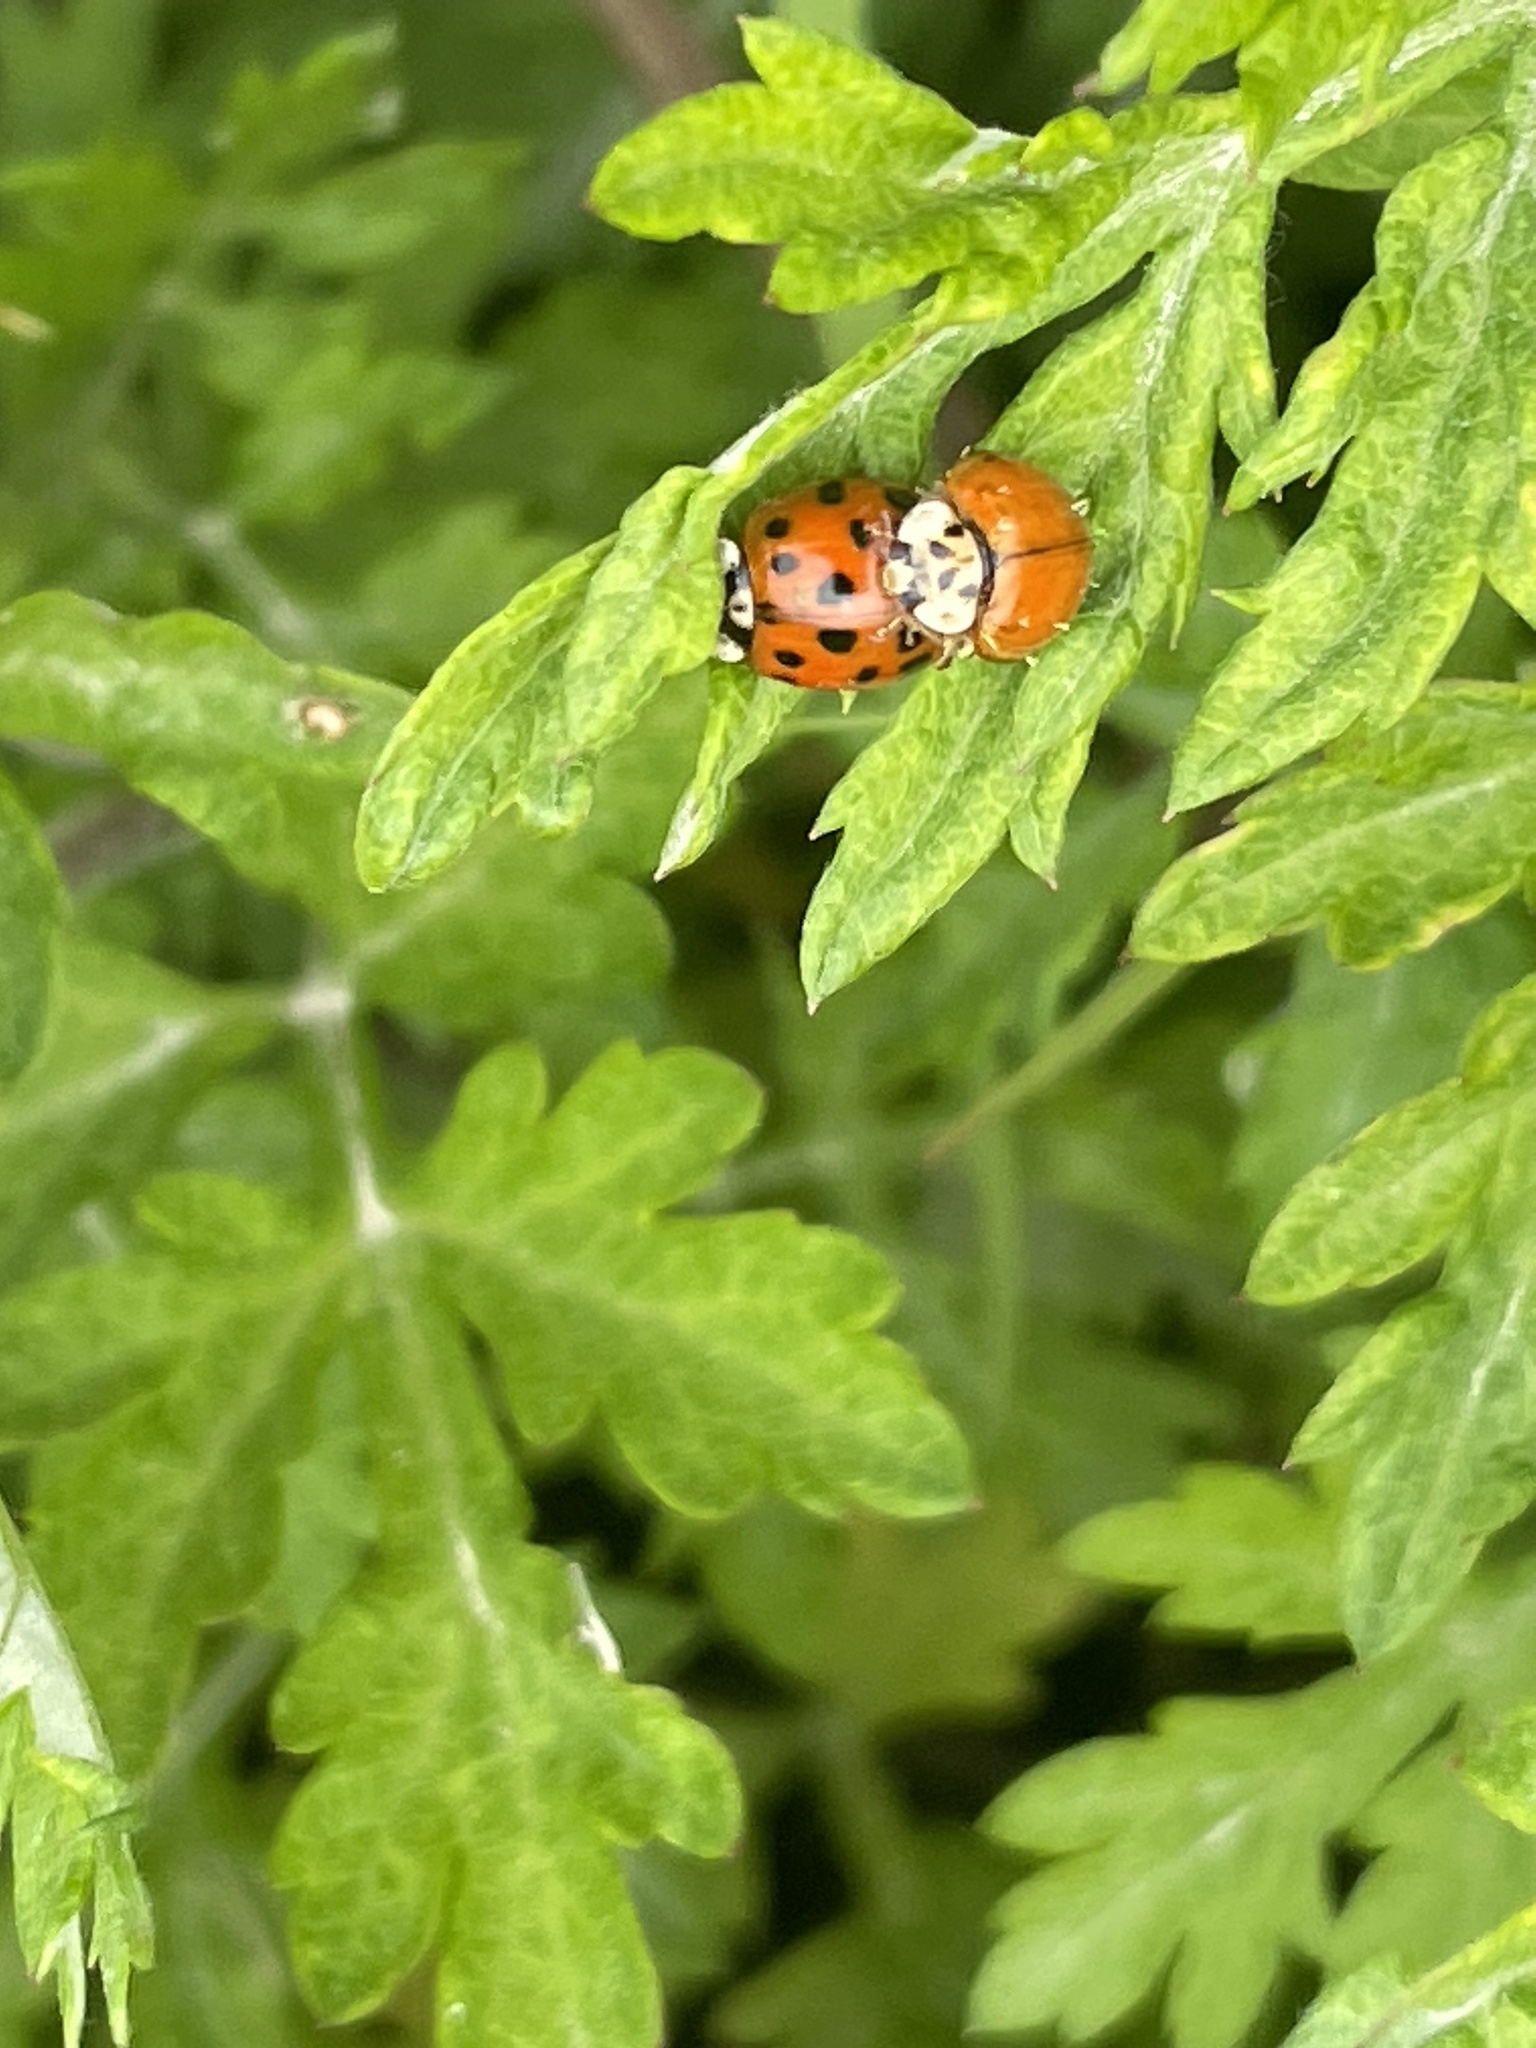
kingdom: Animalia
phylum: Arthropoda
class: Insecta
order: Coleoptera
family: Coccinellidae
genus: Harmonia
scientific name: Harmonia axyridis
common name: Harlequin ladybird
